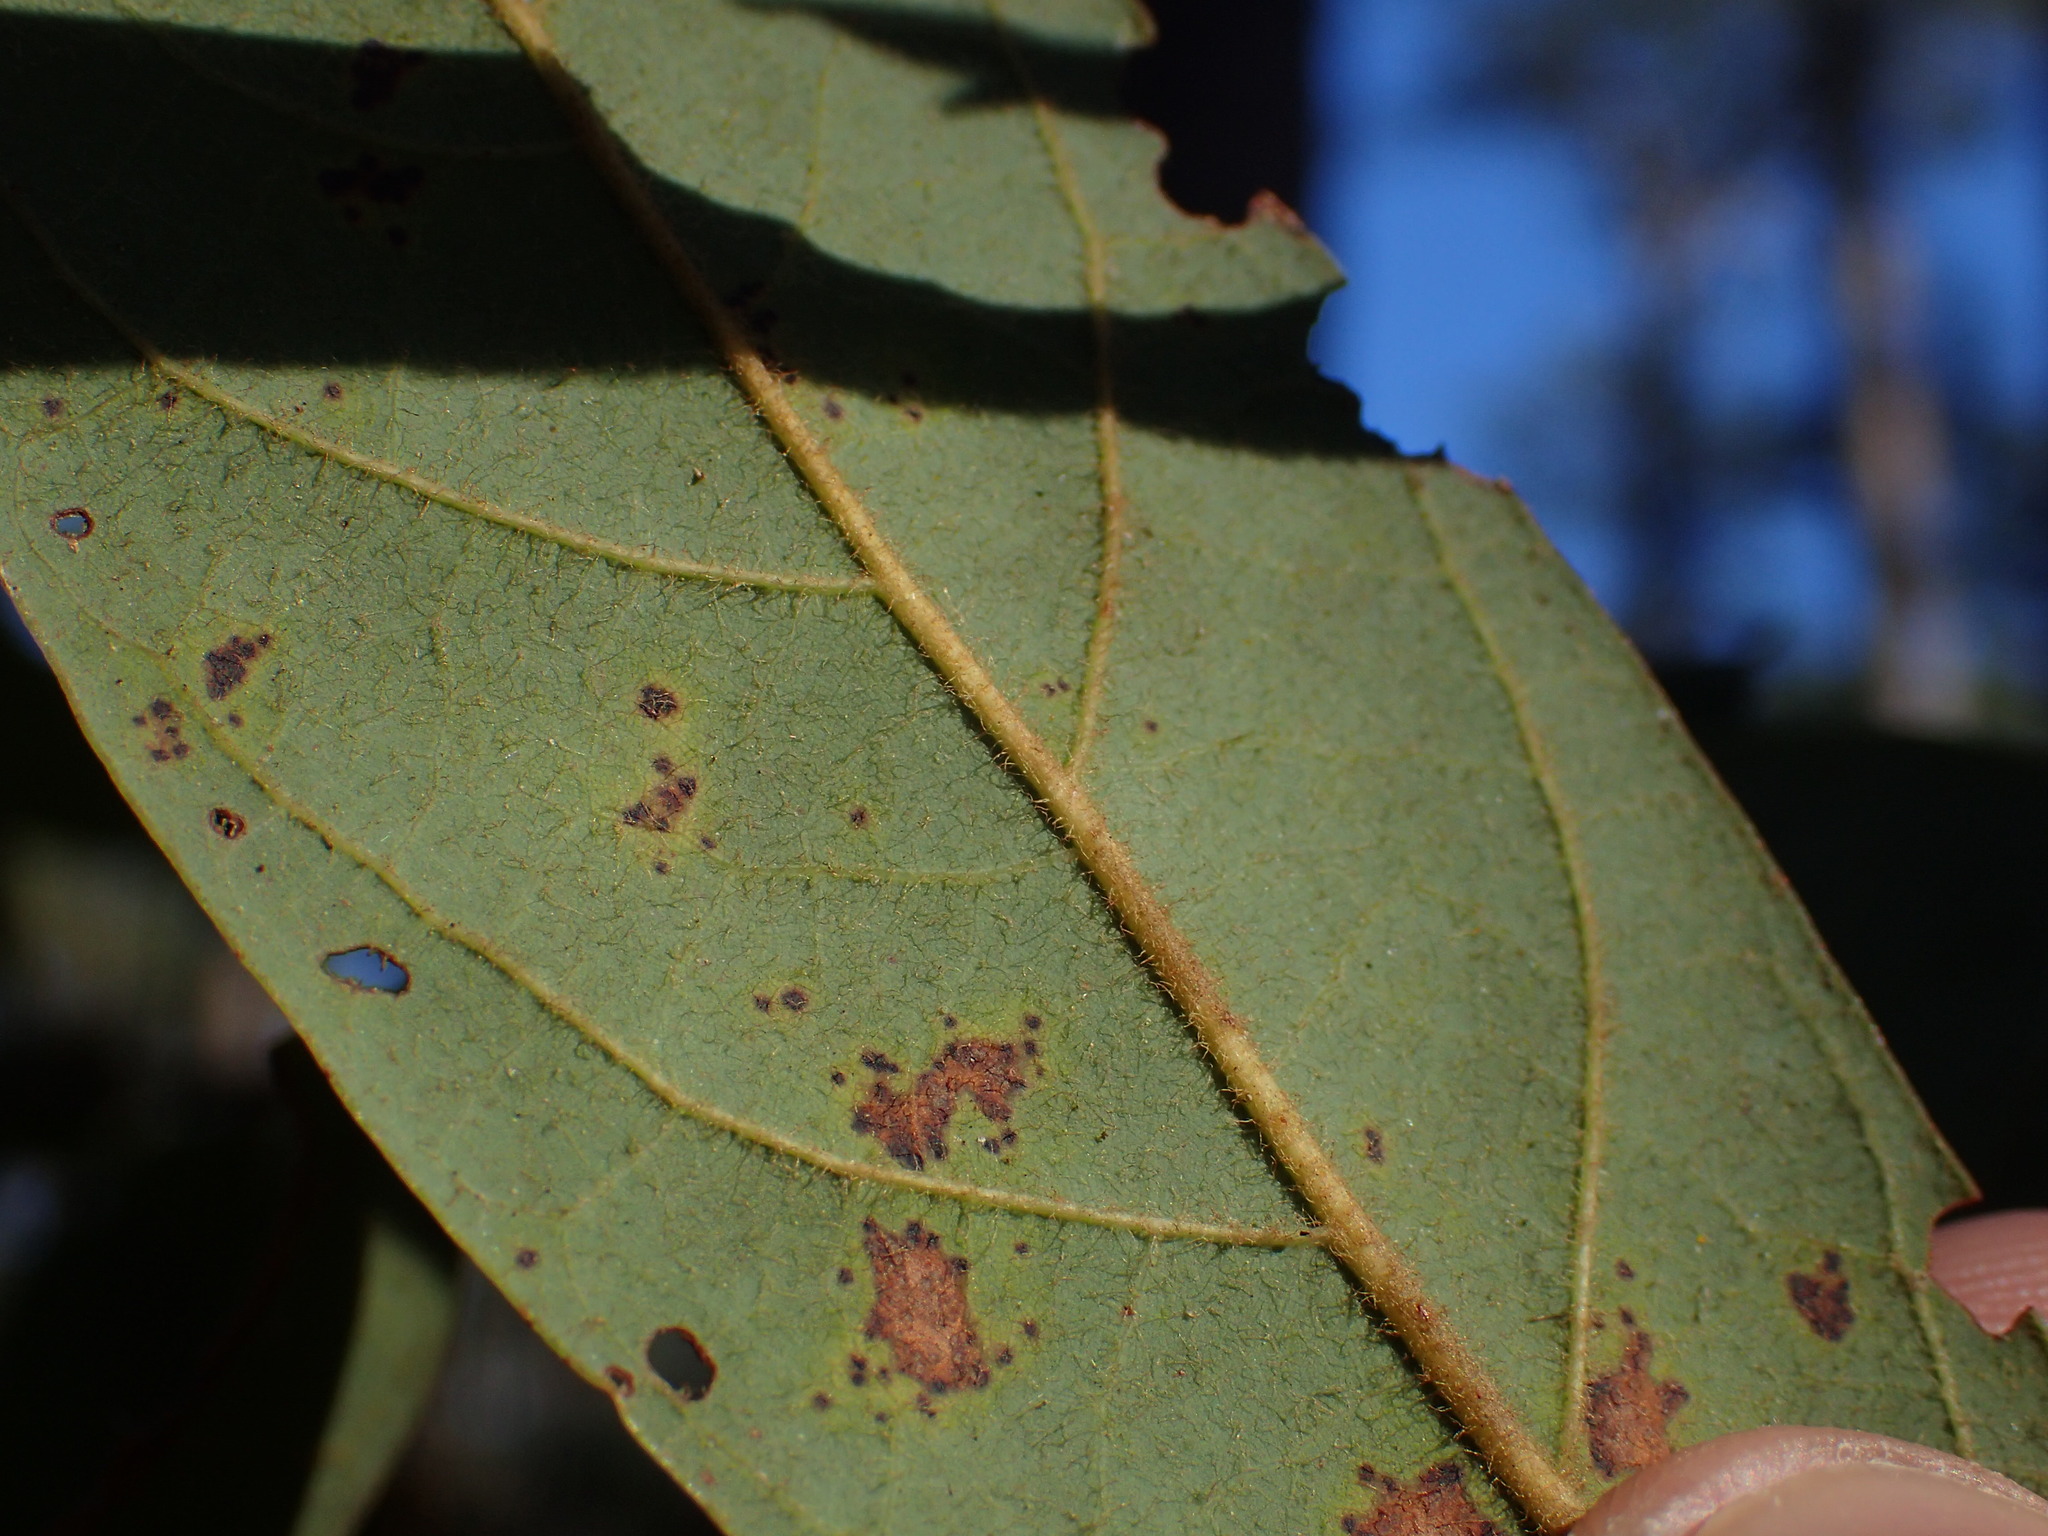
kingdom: Plantae
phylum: Tracheophyta
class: Magnoliopsida
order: Laurales
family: Lauraceae
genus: Persea
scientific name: Persea palustris
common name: Swampbay
